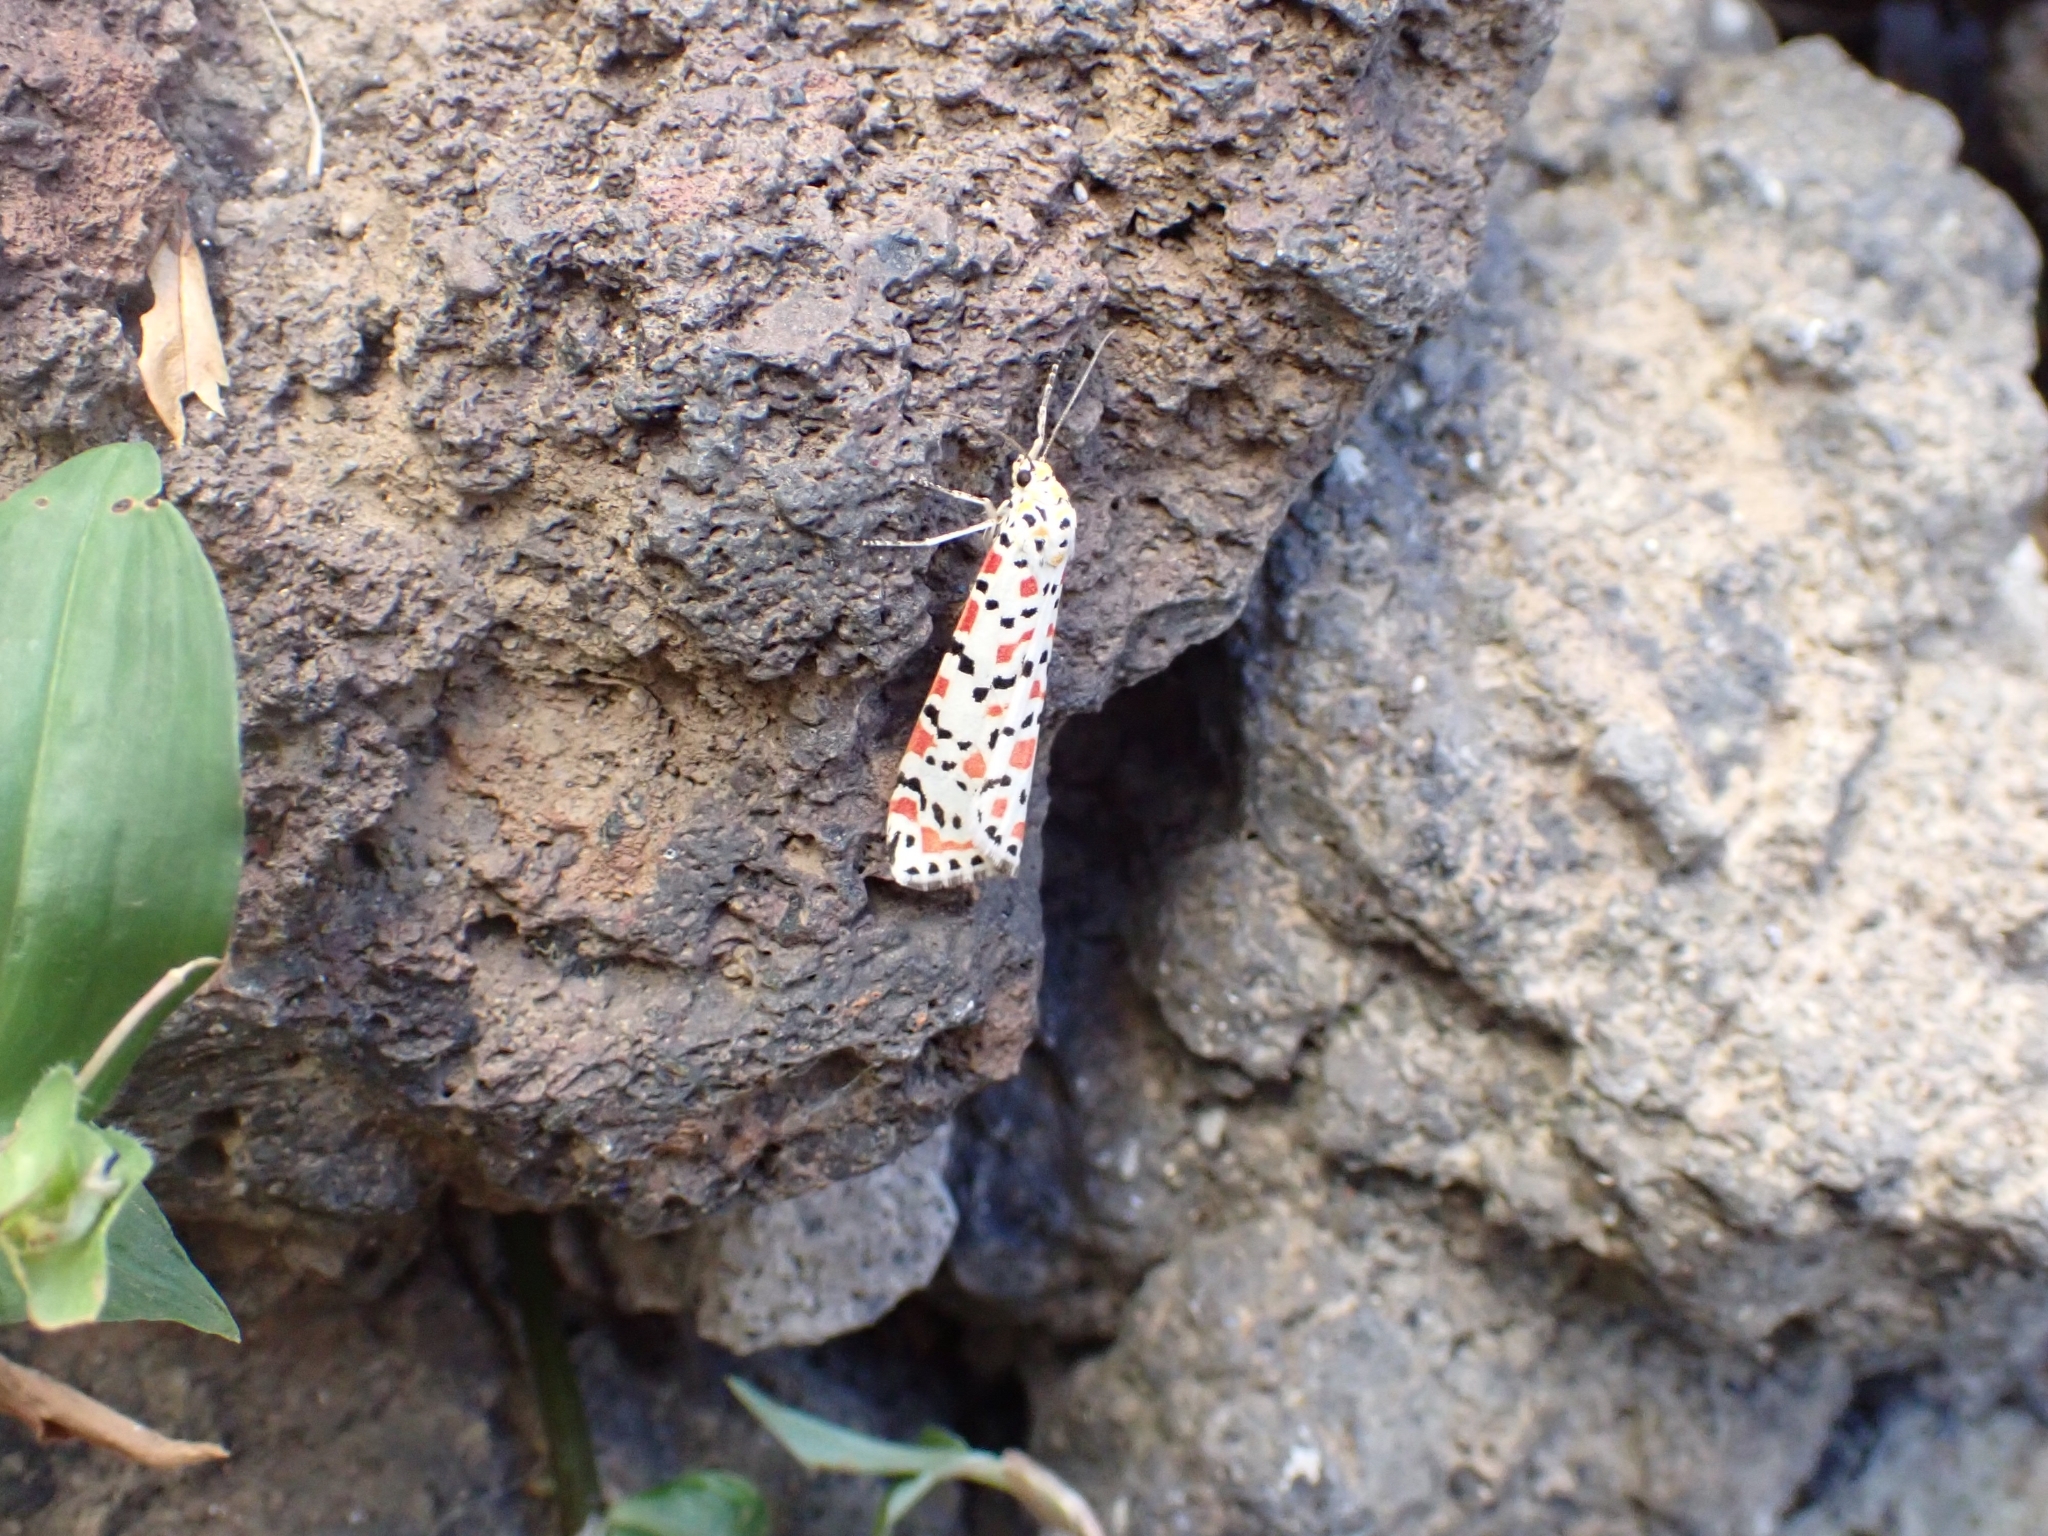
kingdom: Animalia
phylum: Arthropoda
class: Insecta
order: Lepidoptera
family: Erebidae
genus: Utetheisa
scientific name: Utetheisa pulchella
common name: Crimson speckled
